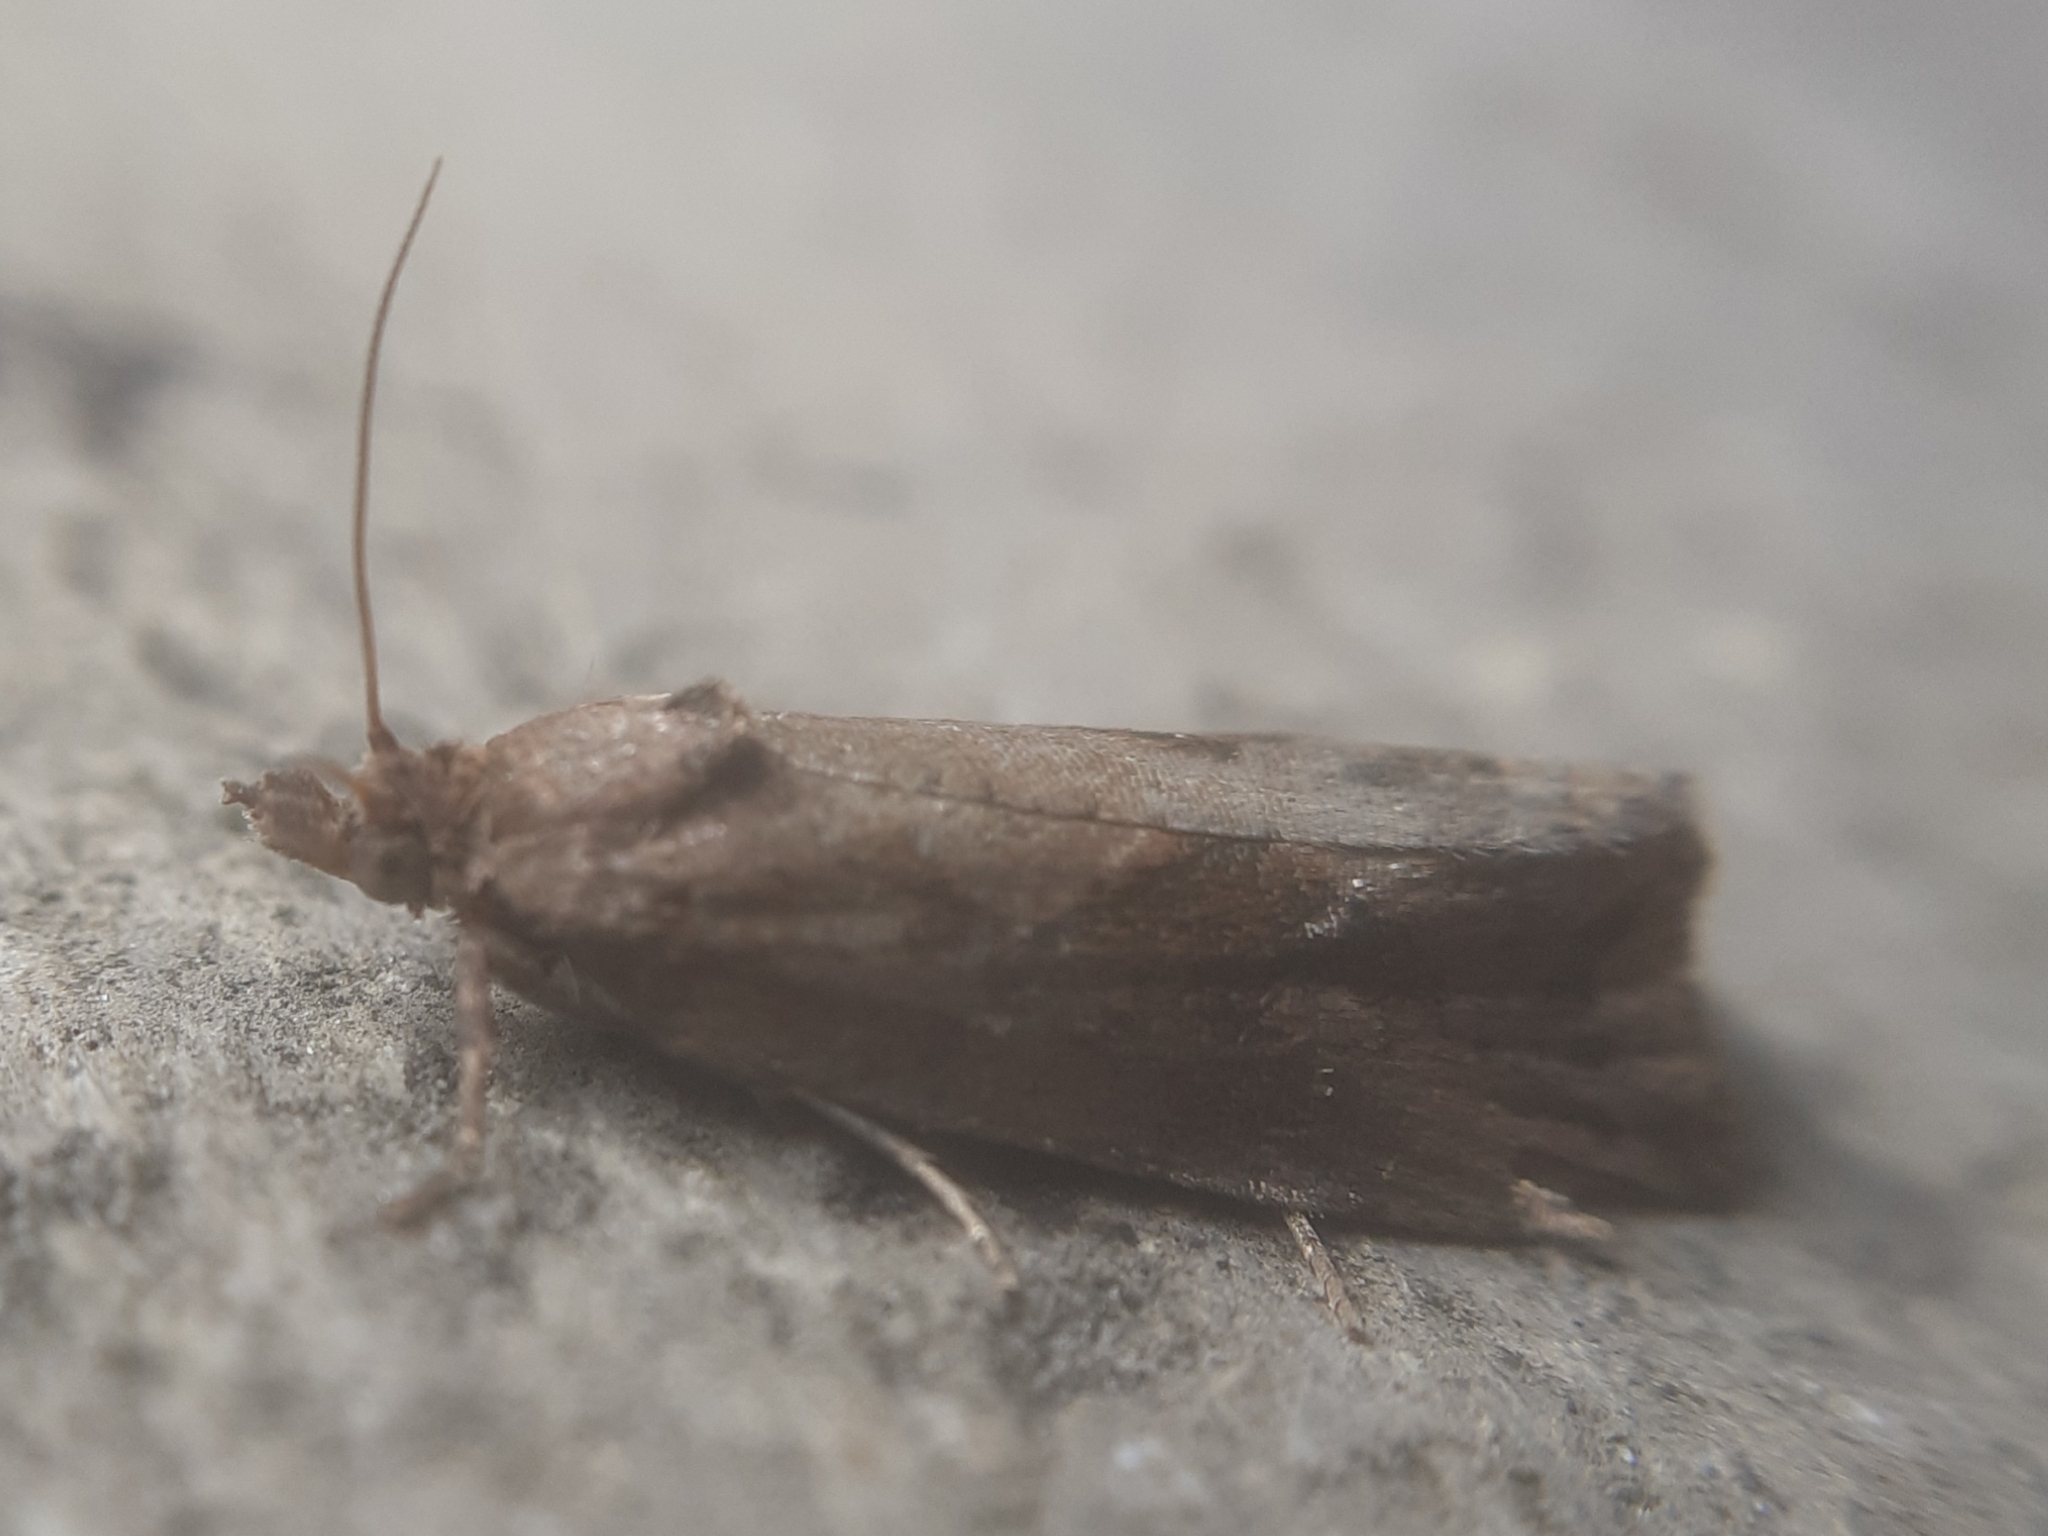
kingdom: Animalia
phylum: Arthropoda
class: Insecta
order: Lepidoptera
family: Tortricidae
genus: Endothenia
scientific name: Endothenia quadrimaculana
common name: Tortricid moth
